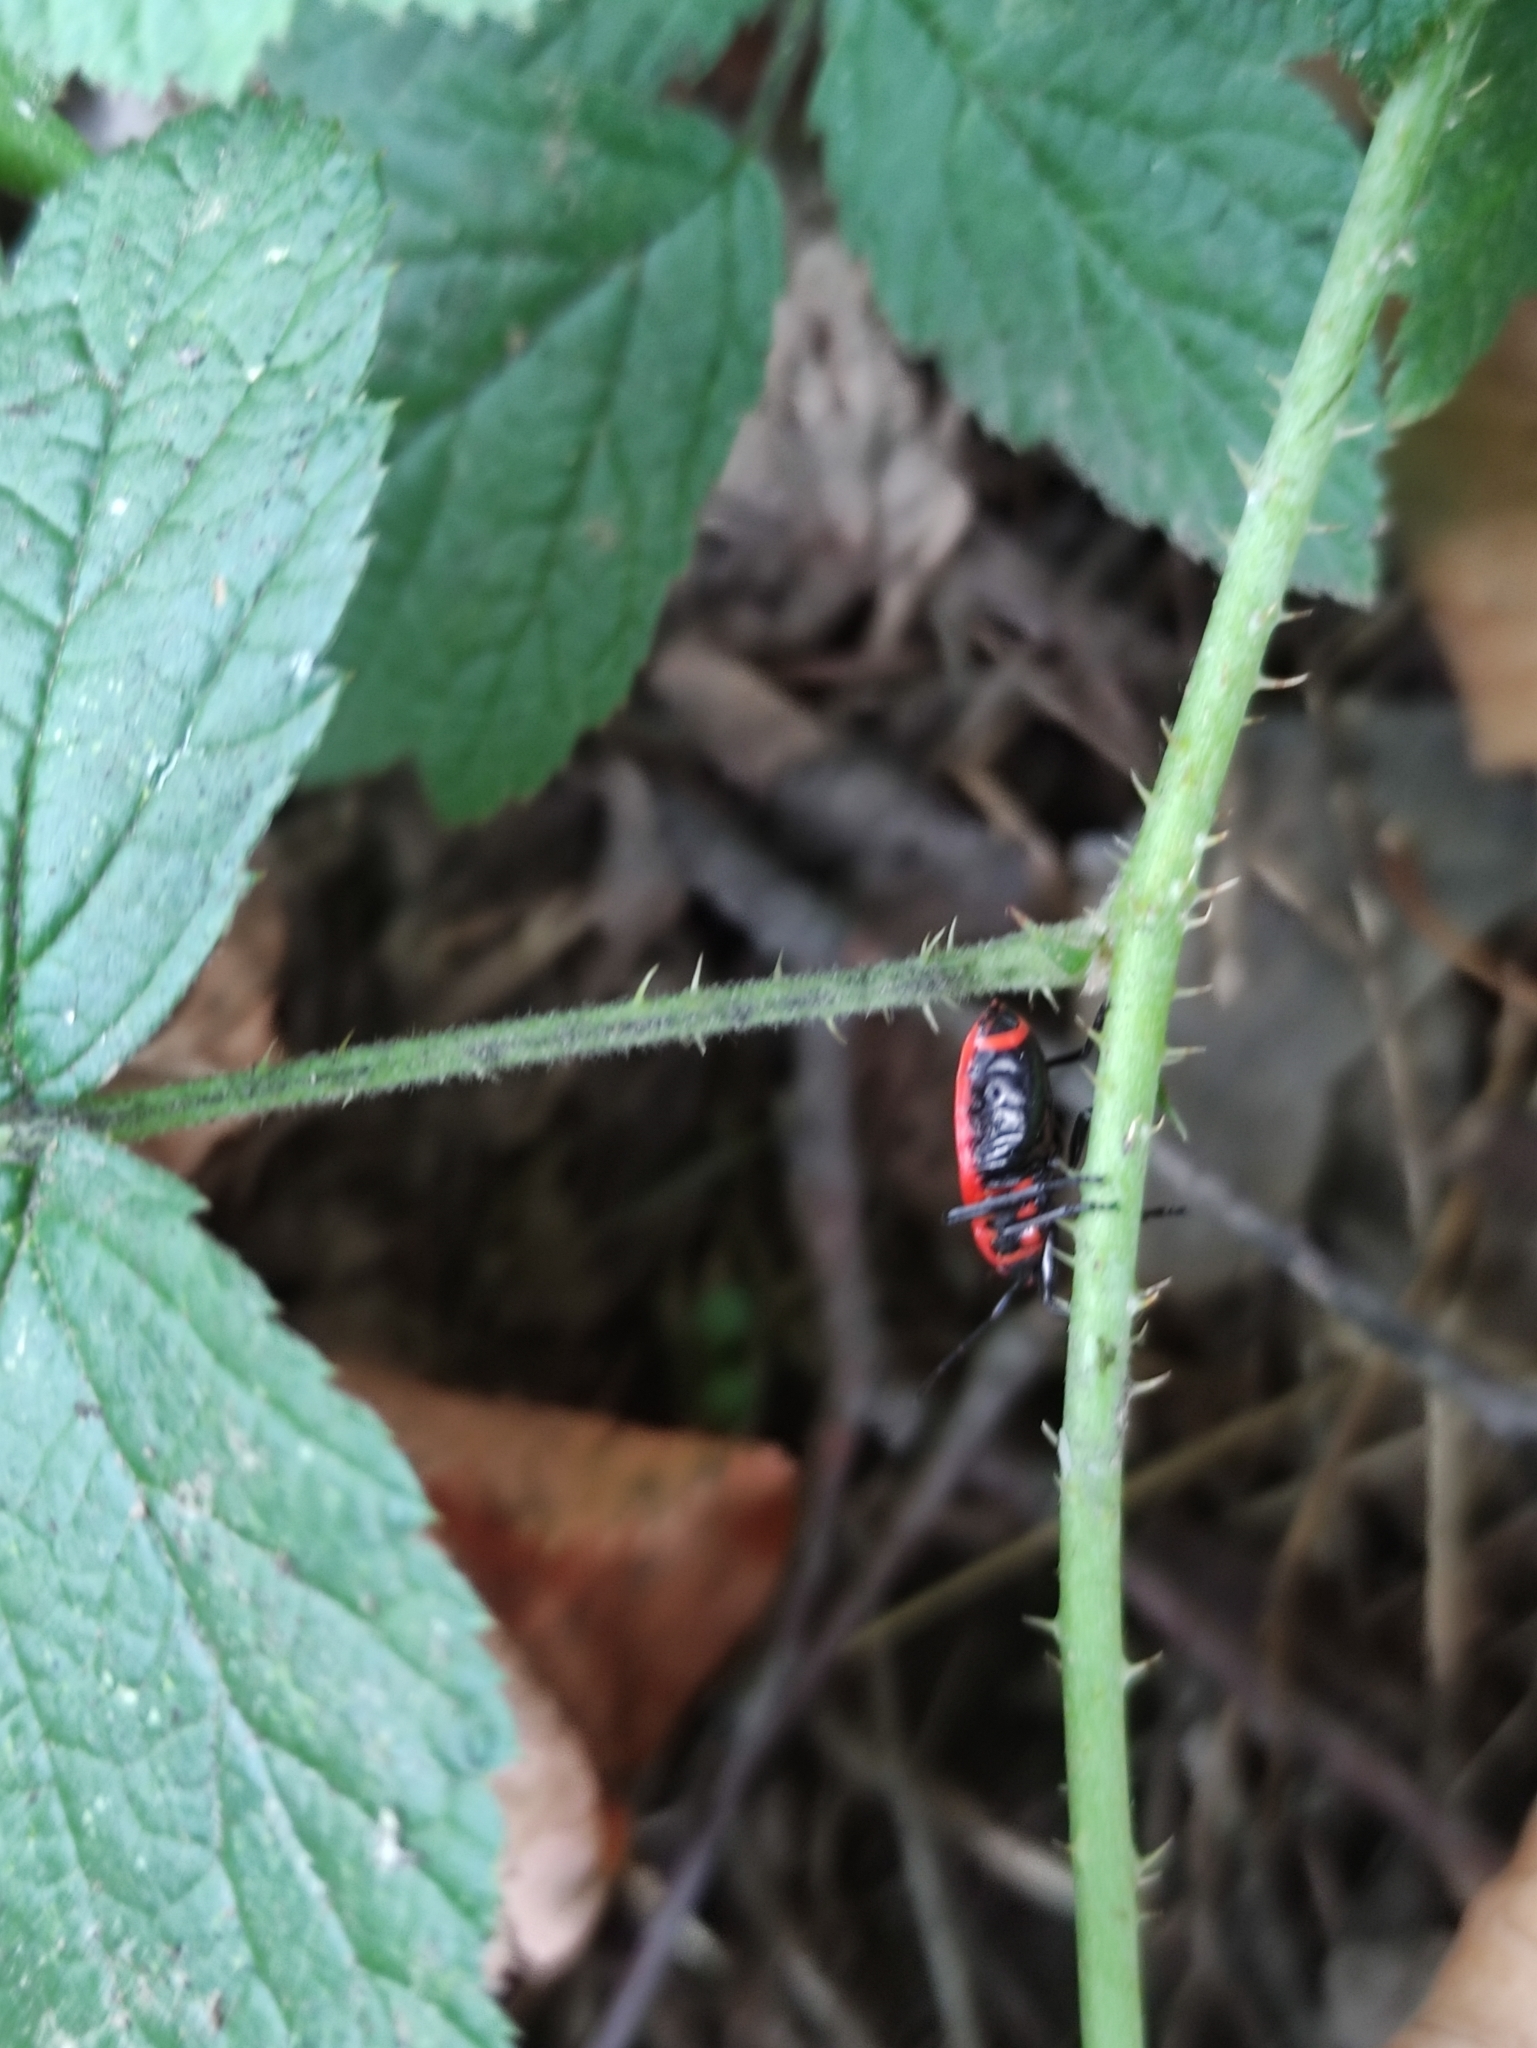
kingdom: Animalia
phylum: Arthropoda
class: Insecta
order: Hemiptera
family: Pyrrhocoridae
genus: Pyrrhocoris
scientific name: Pyrrhocoris apterus
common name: Firebug
